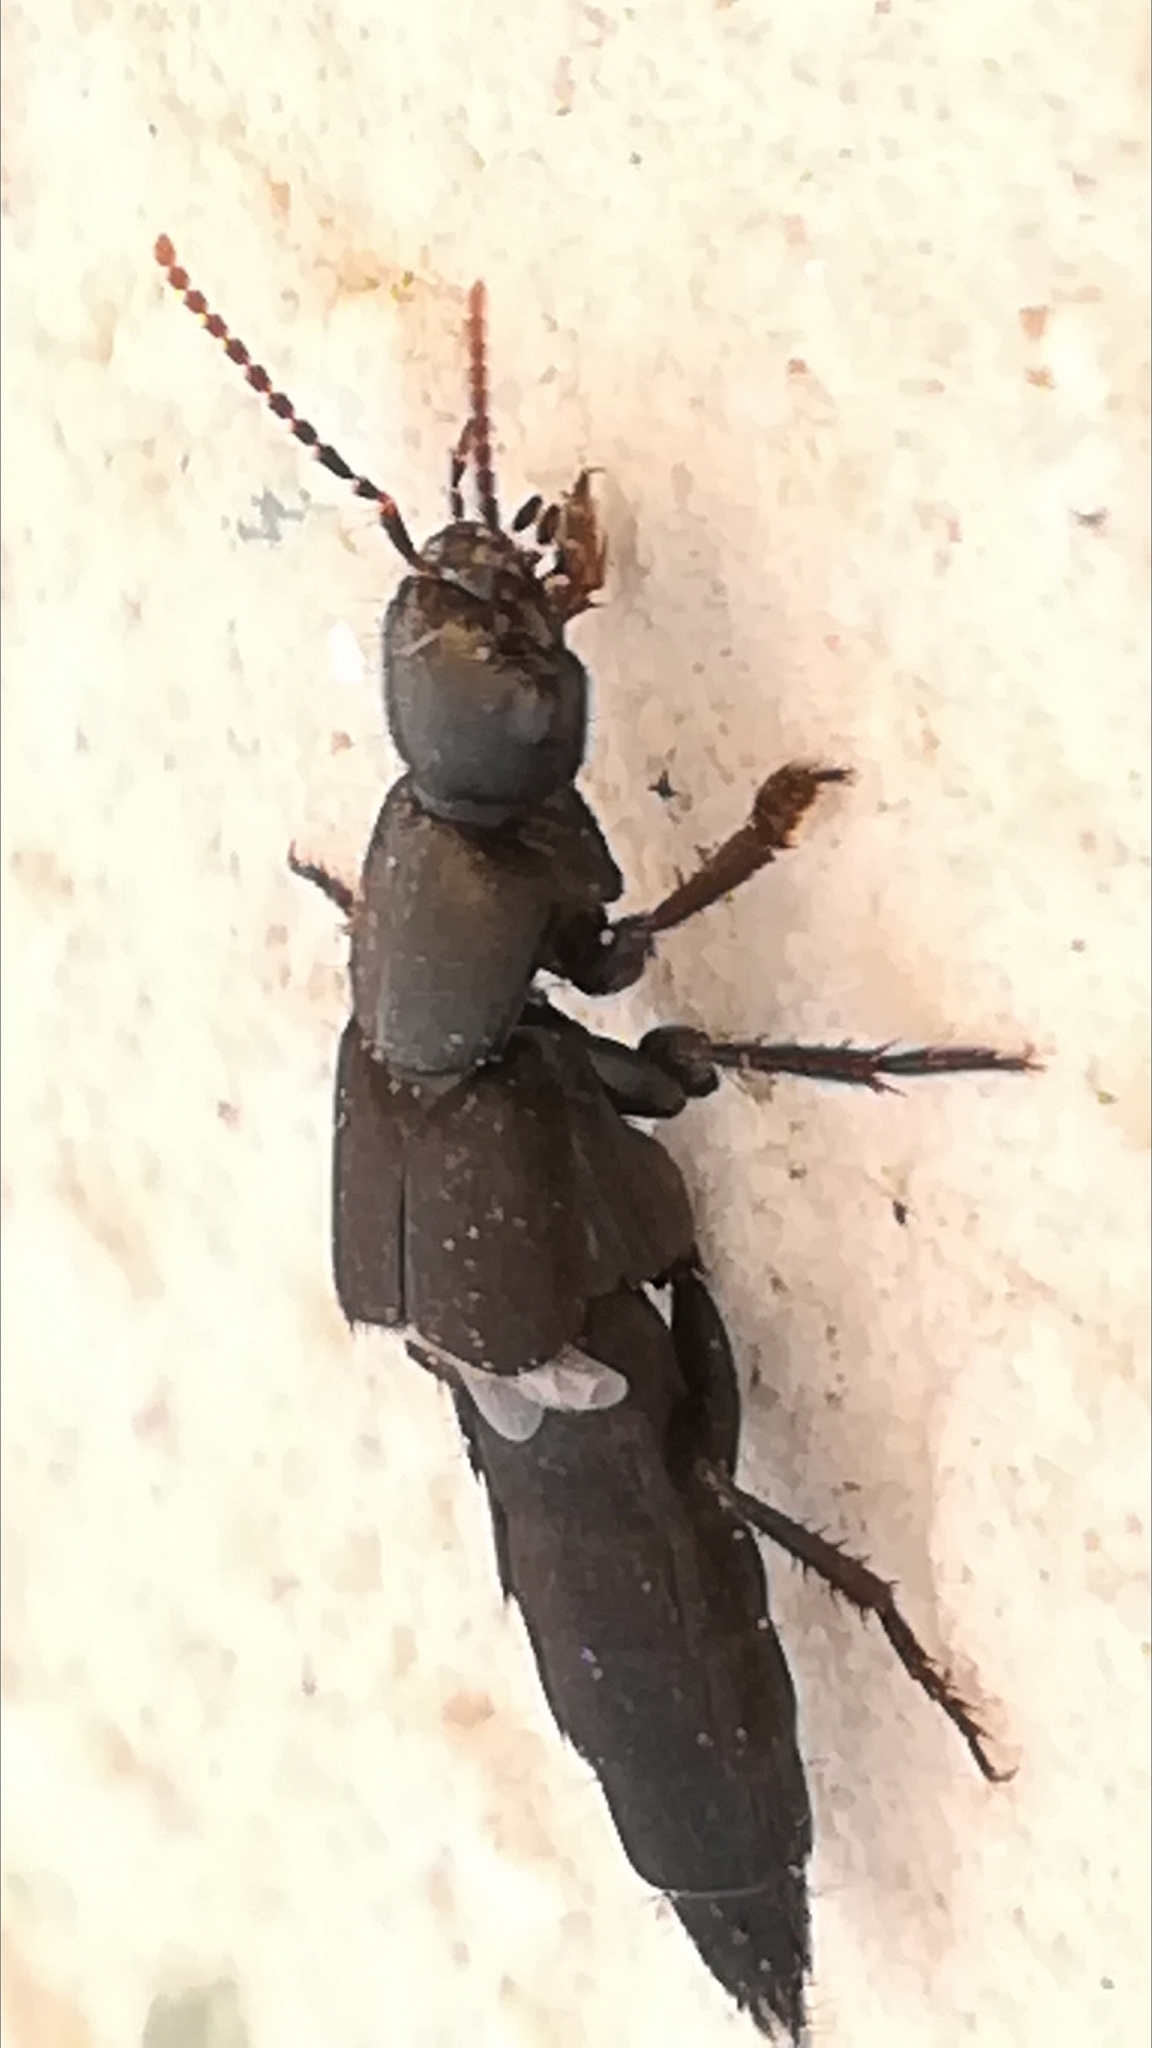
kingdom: Animalia
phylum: Arthropoda
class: Insecta
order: Coleoptera
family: Staphylinidae
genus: Ocypus
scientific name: Ocypus olens
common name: Devil's coach-horse
